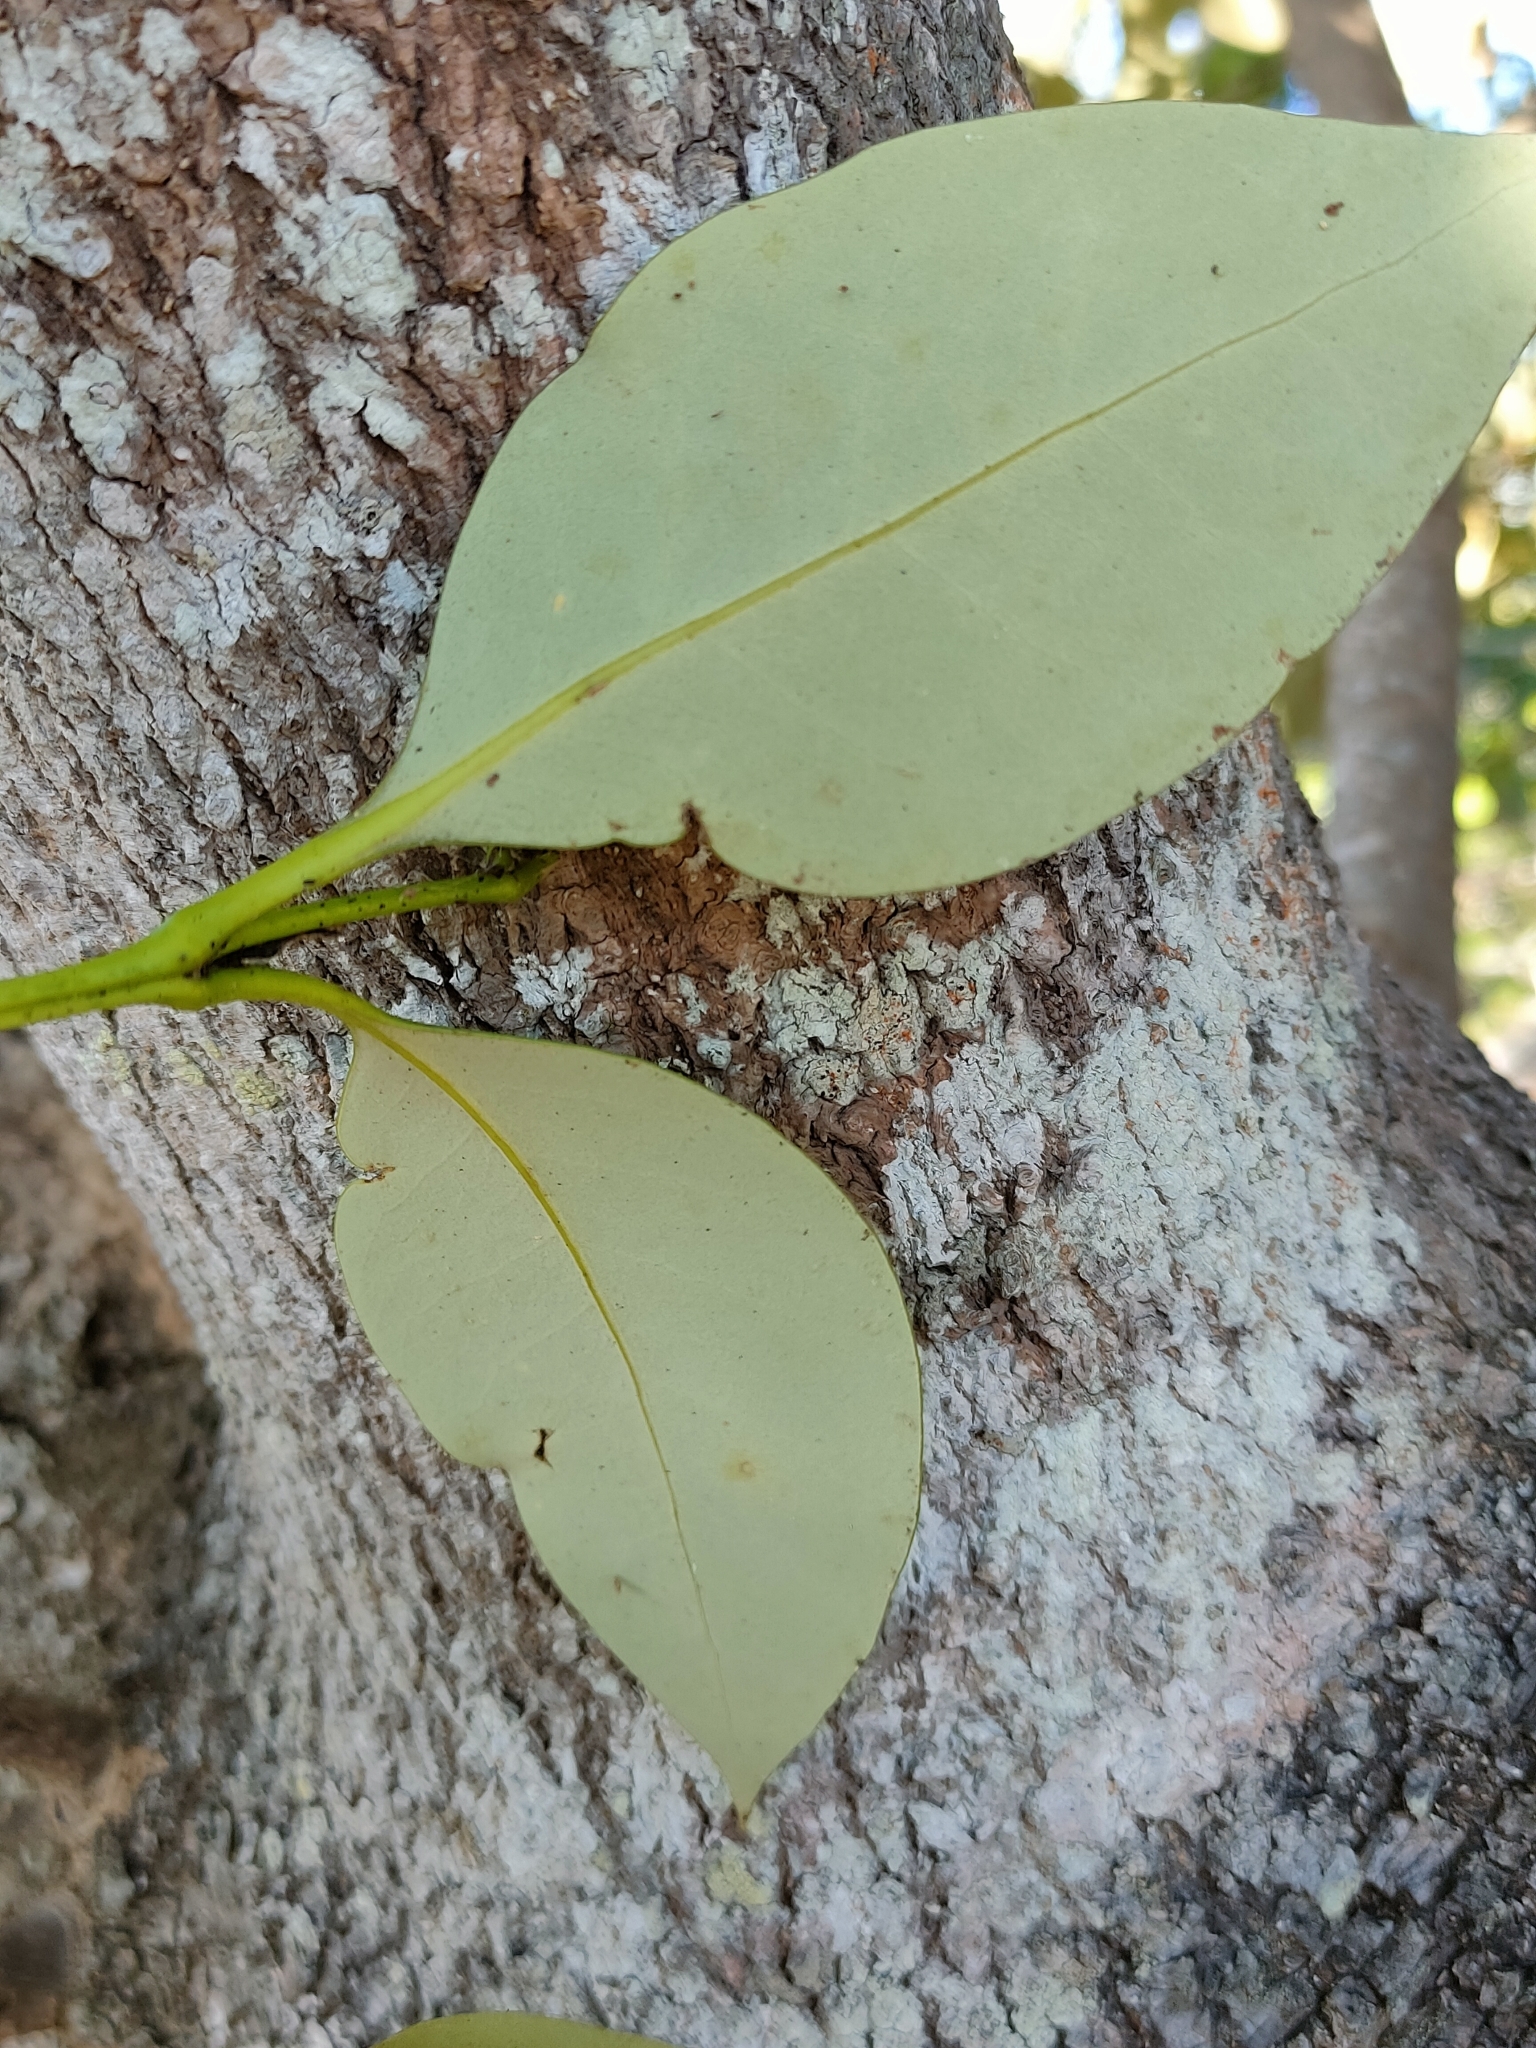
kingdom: Plantae
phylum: Tracheophyta
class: Magnoliopsida
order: Lamiales
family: Acanthaceae
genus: Avicennia
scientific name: Avicennia marina
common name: Gray mangrove
